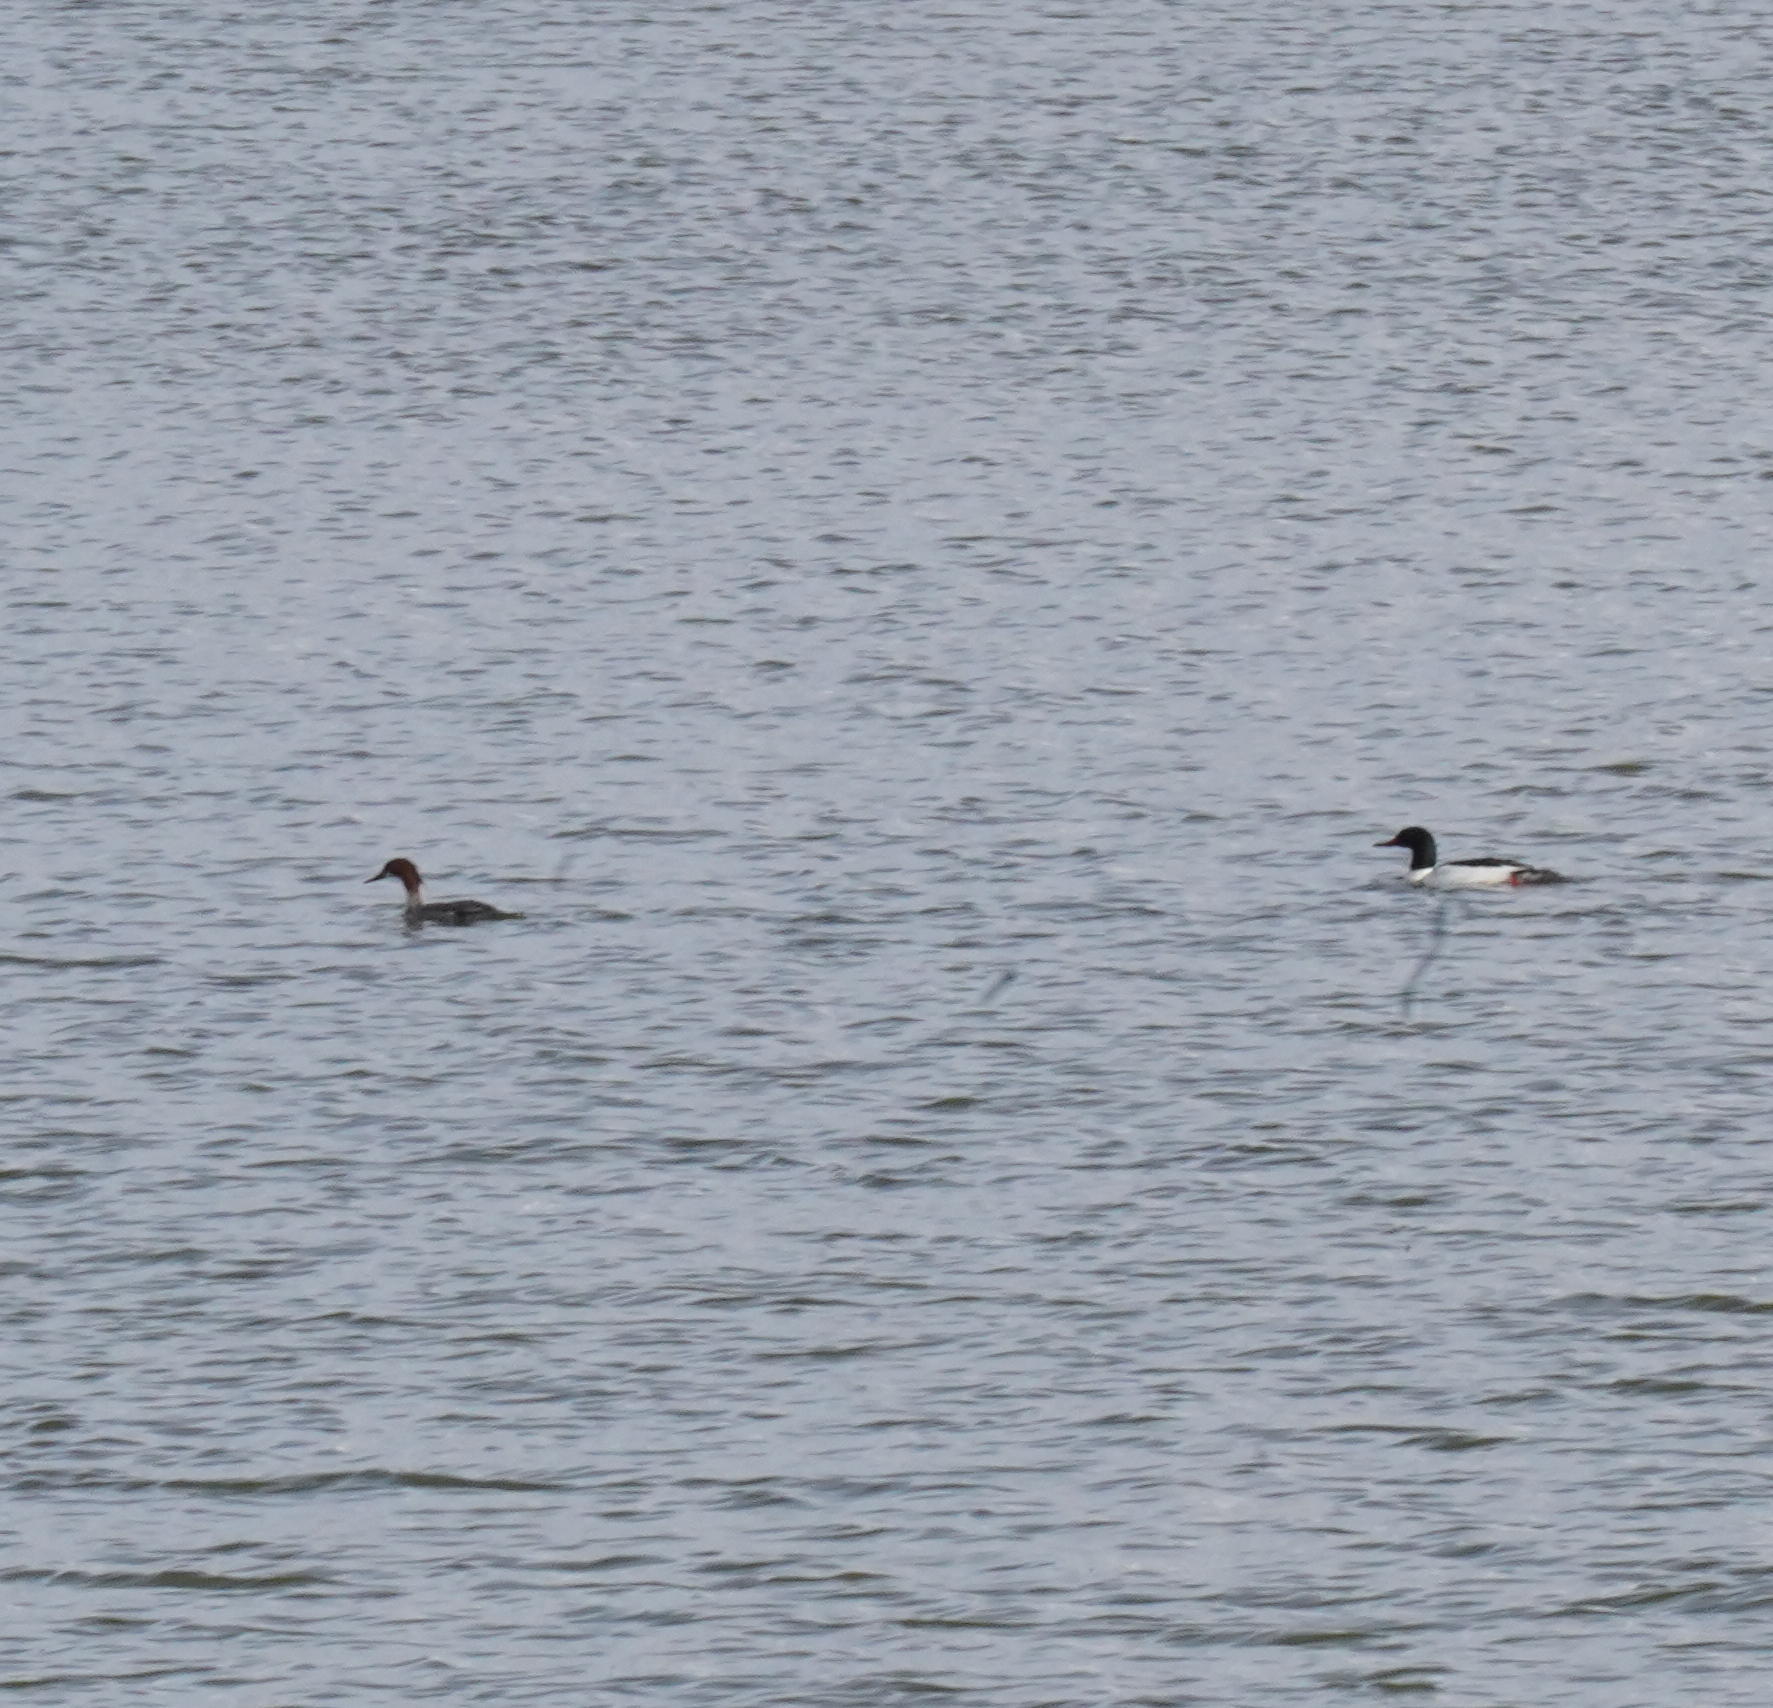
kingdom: Animalia
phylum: Chordata
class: Aves
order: Anseriformes
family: Anatidae
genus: Mergus
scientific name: Mergus merganser
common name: Common merganser
